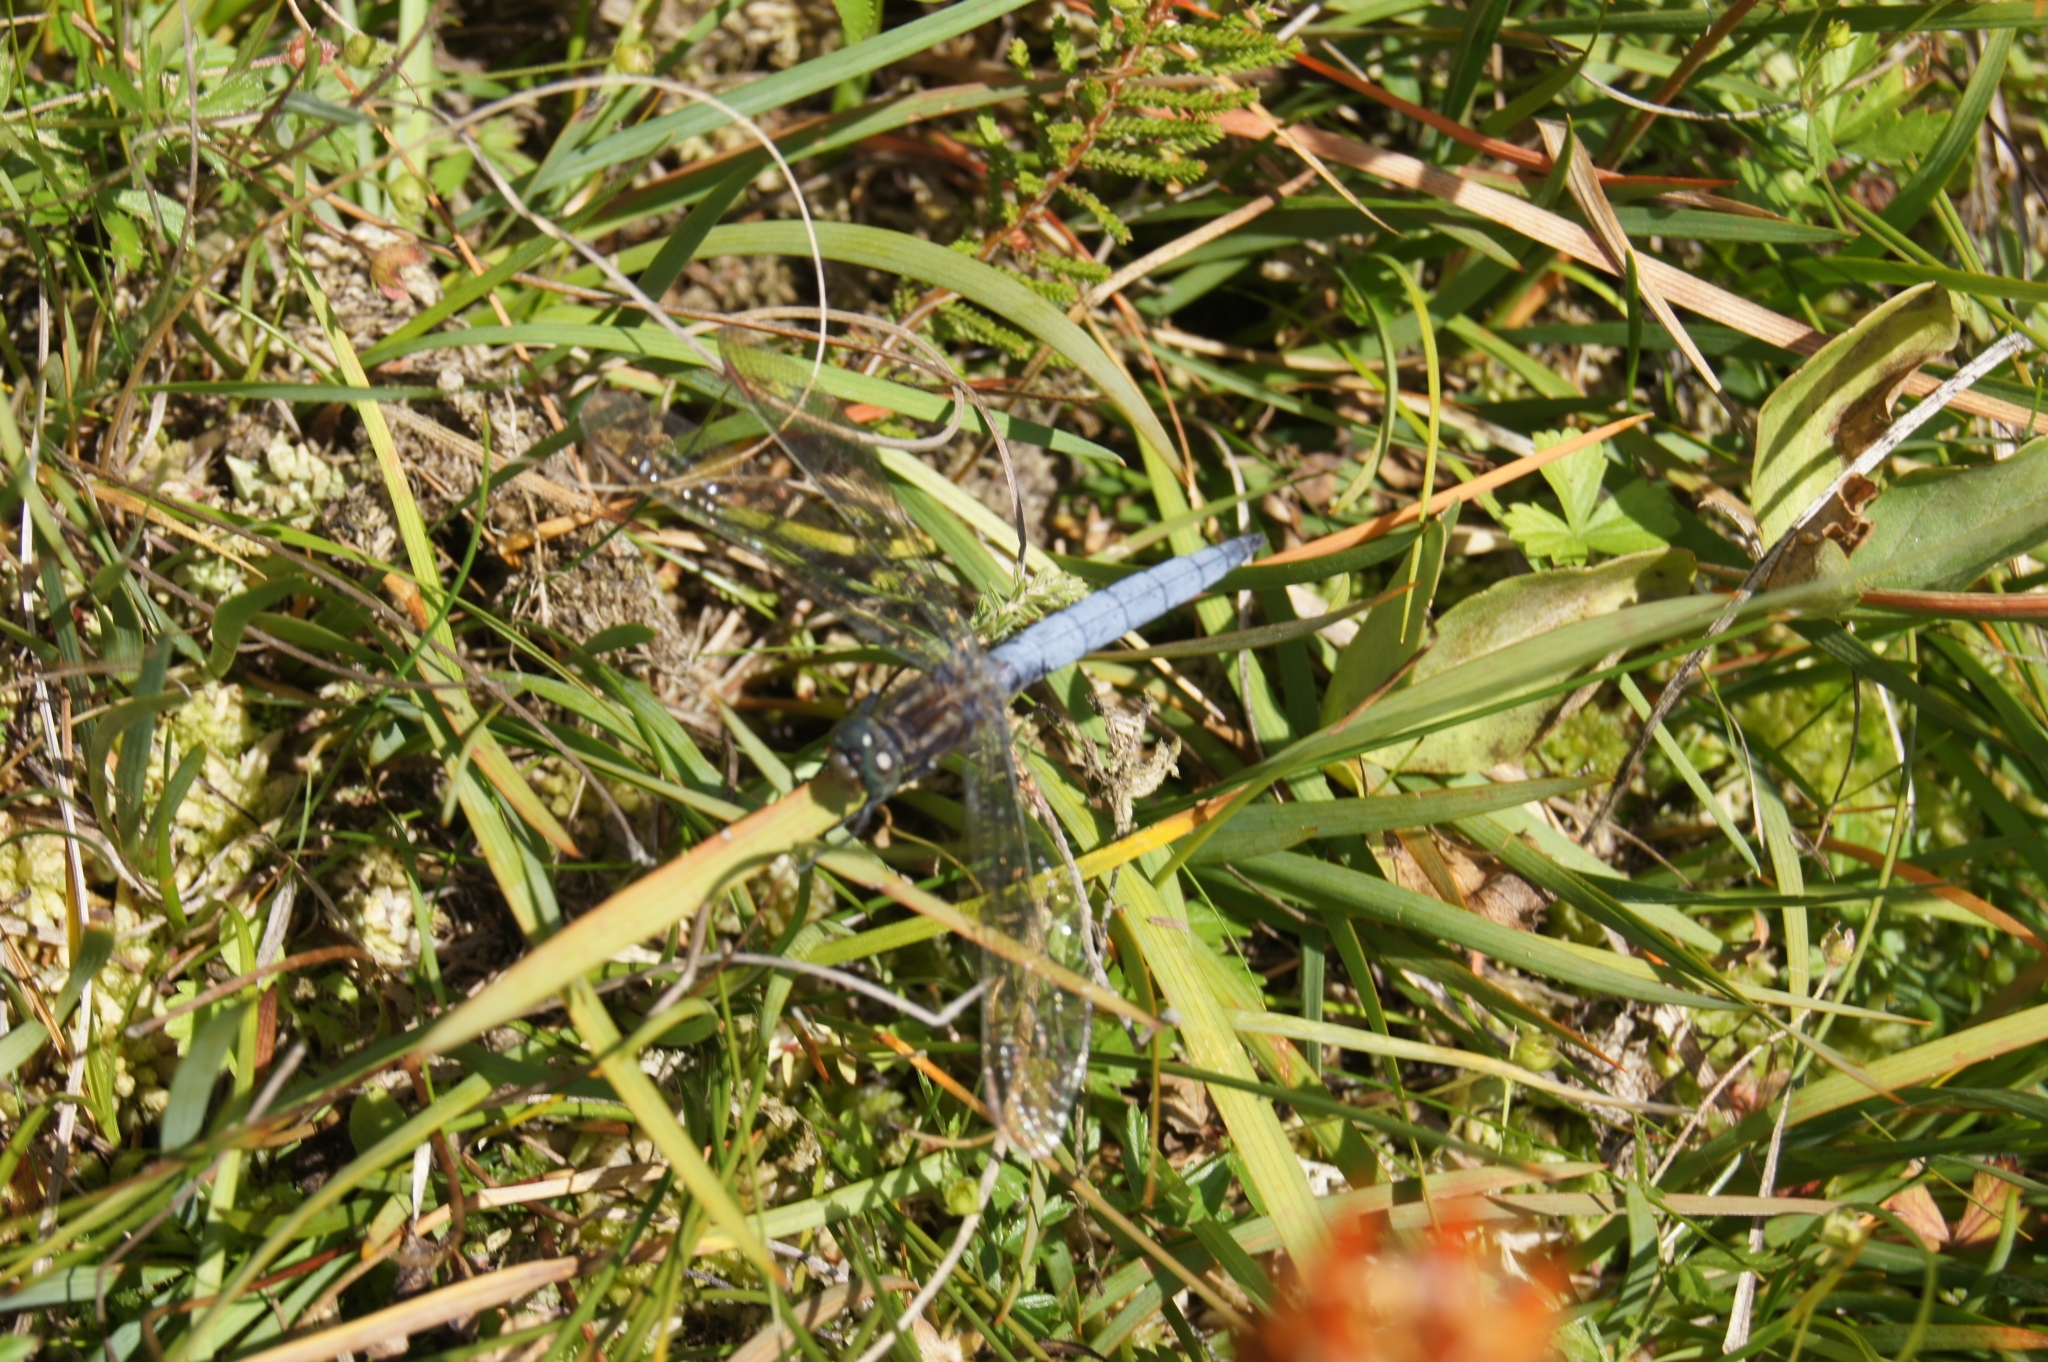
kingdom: Animalia
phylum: Arthropoda
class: Insecta
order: Odonata
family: Libellulidae
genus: Orthetrum
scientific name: Orthetrum coerulescens
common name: Keeled skimmer
